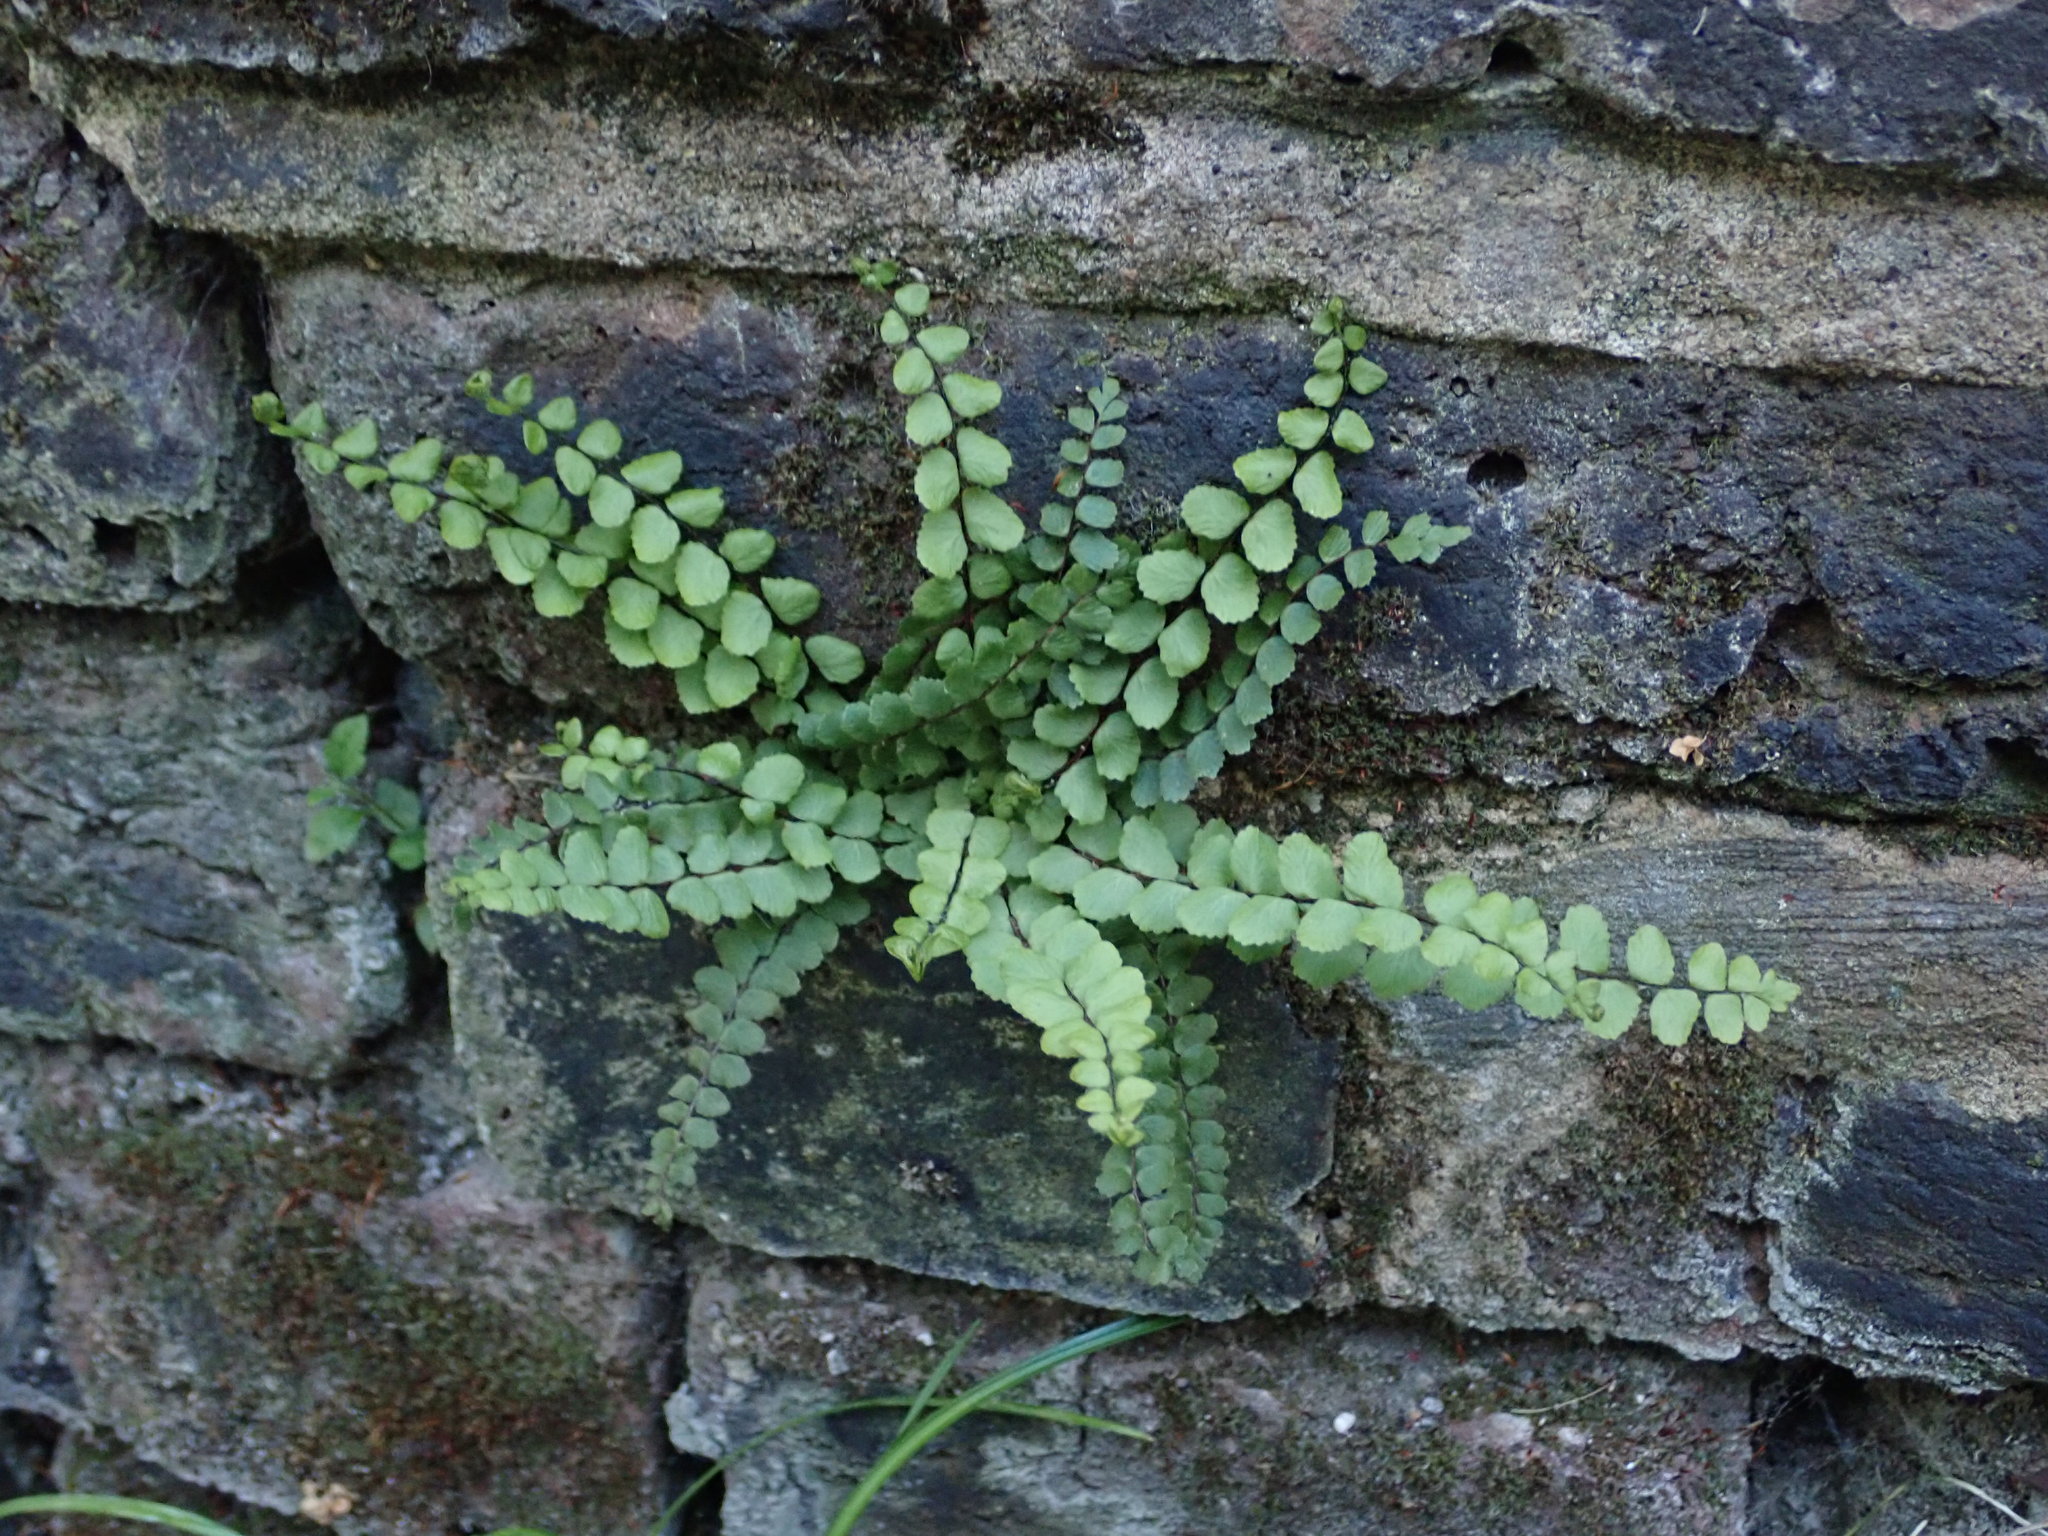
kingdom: Plantae
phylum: Tracheophyta
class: Polypodiopsida
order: Polypodiales
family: Aspleniaceae
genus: Asplenium
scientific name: Asplenium trichomanes
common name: Maidenhair spleenwort
